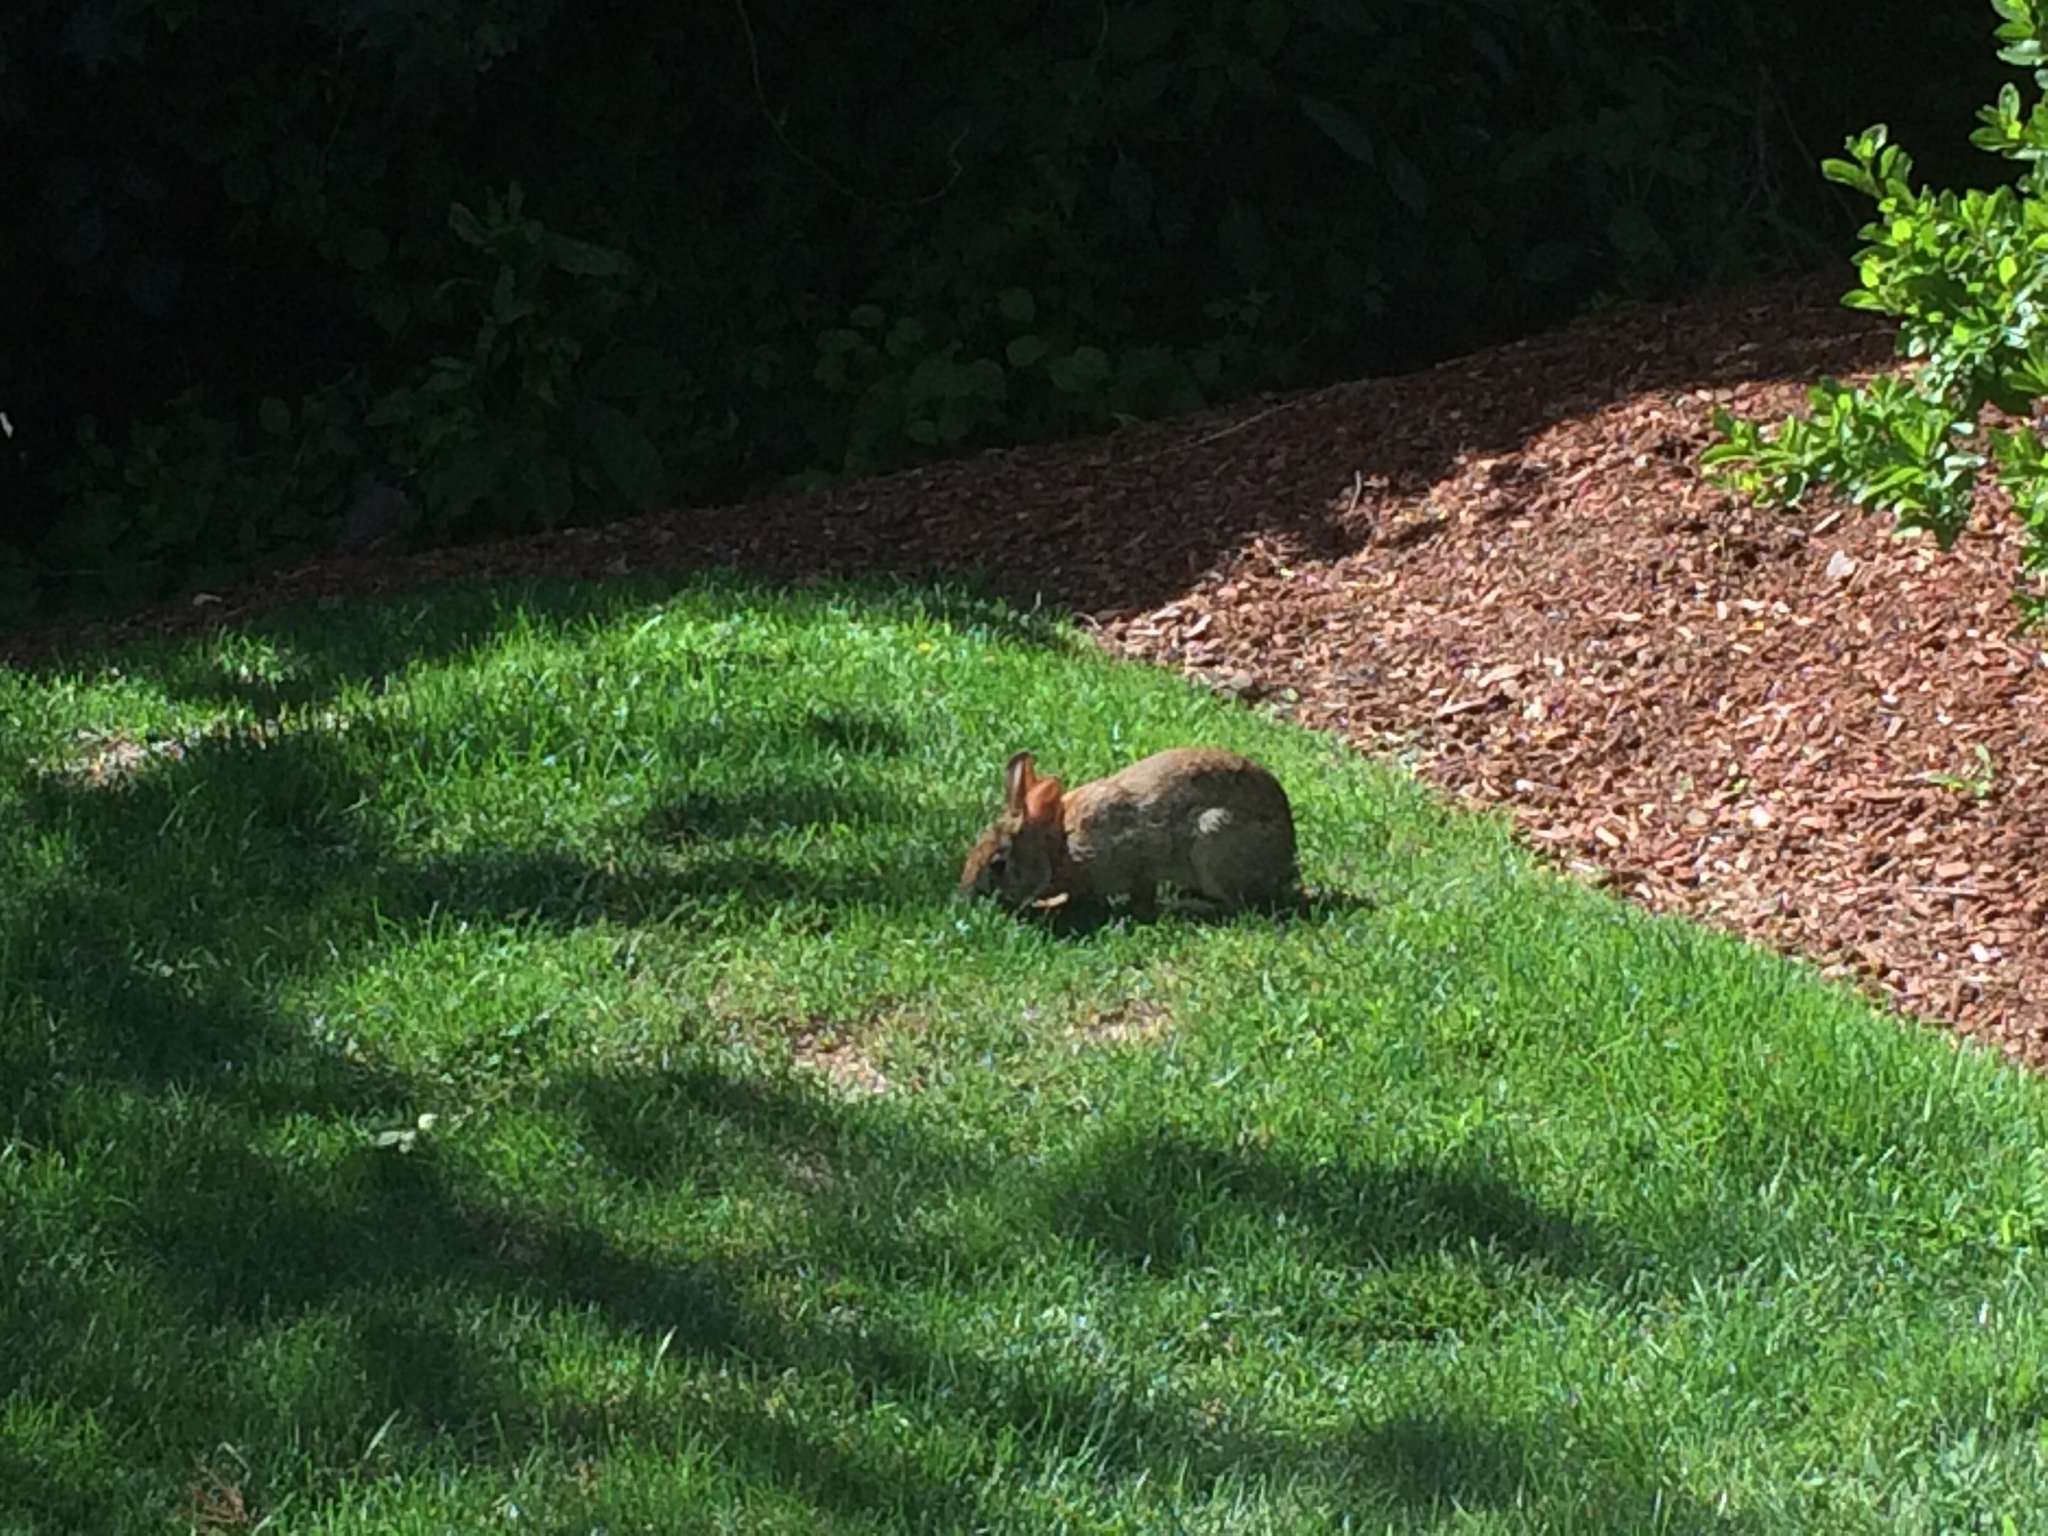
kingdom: Animalia
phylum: Chordata
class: Mammalia
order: Lagomorpha
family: Leporidae
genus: Sylvilagus
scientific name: Sylvilagus floridanus
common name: Eastern cottontail
